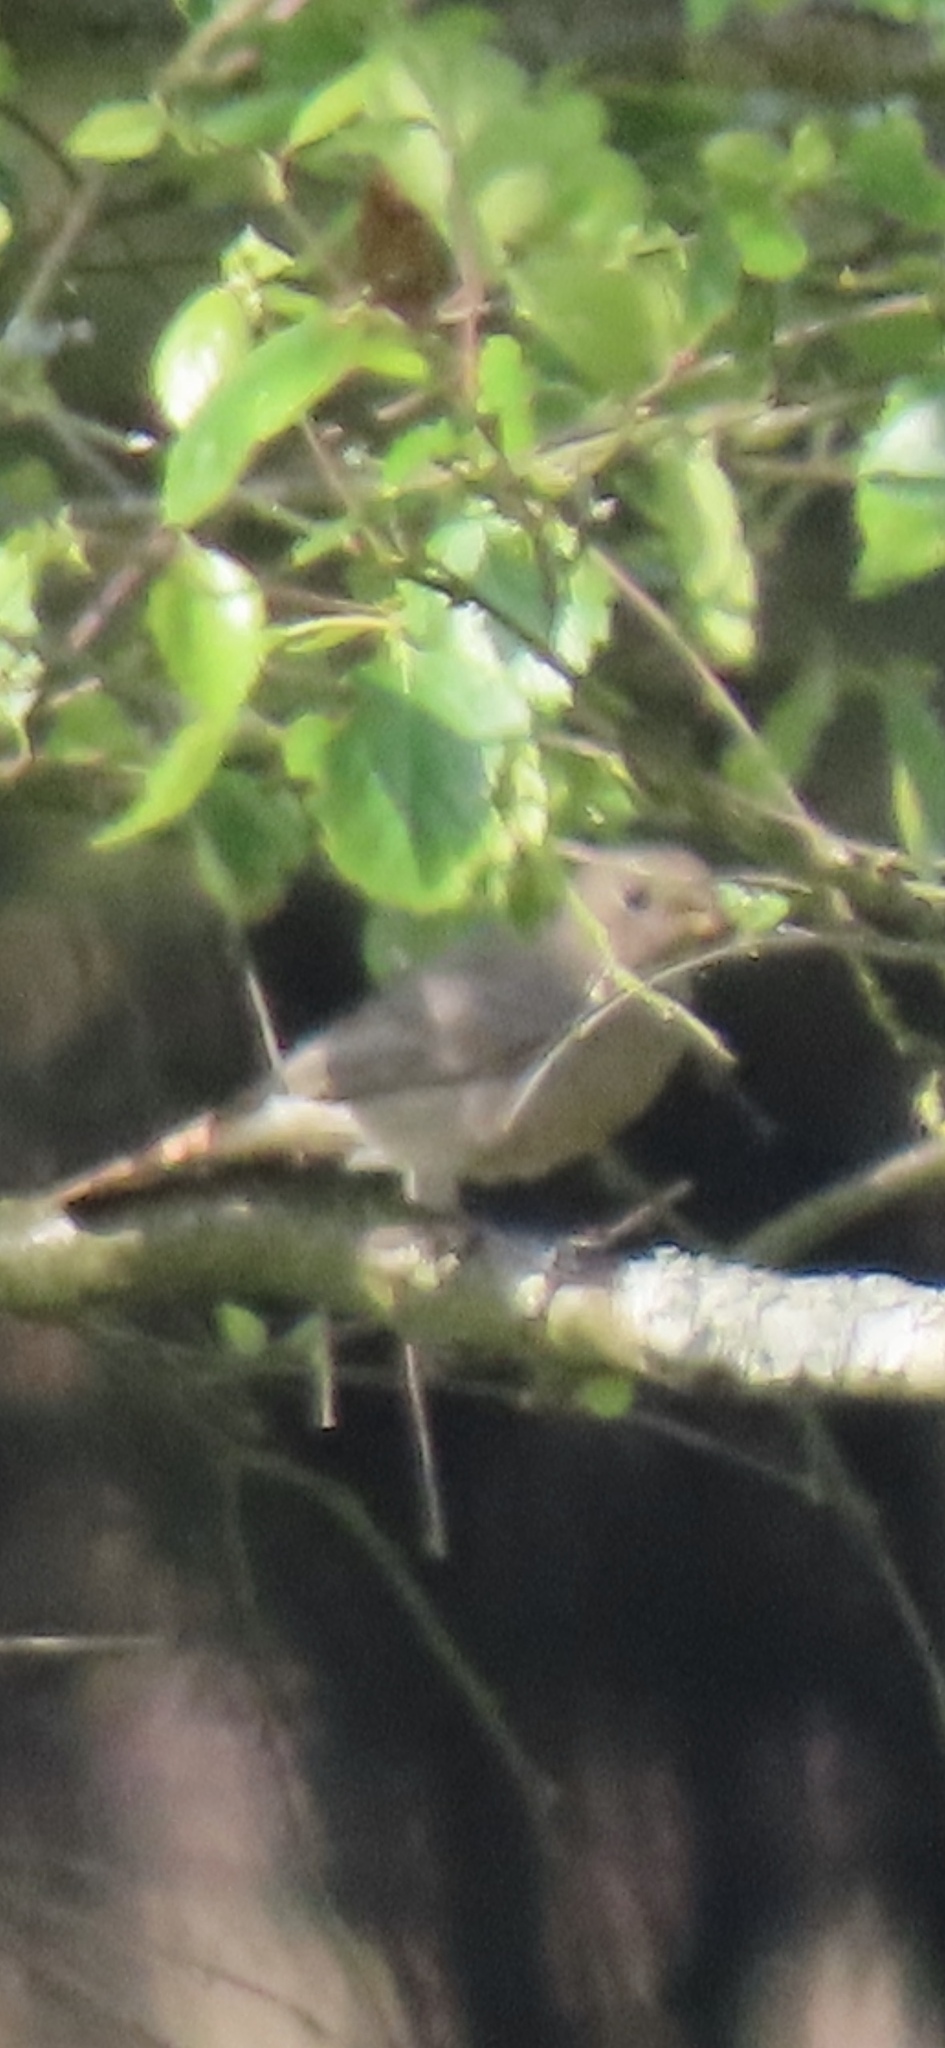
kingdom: Animalia
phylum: Chordata
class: Aves
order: Passeriformes
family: Muscicapidae
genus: Phoenicurus
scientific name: Phoenicurus phoenicurus
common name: Common redstart
